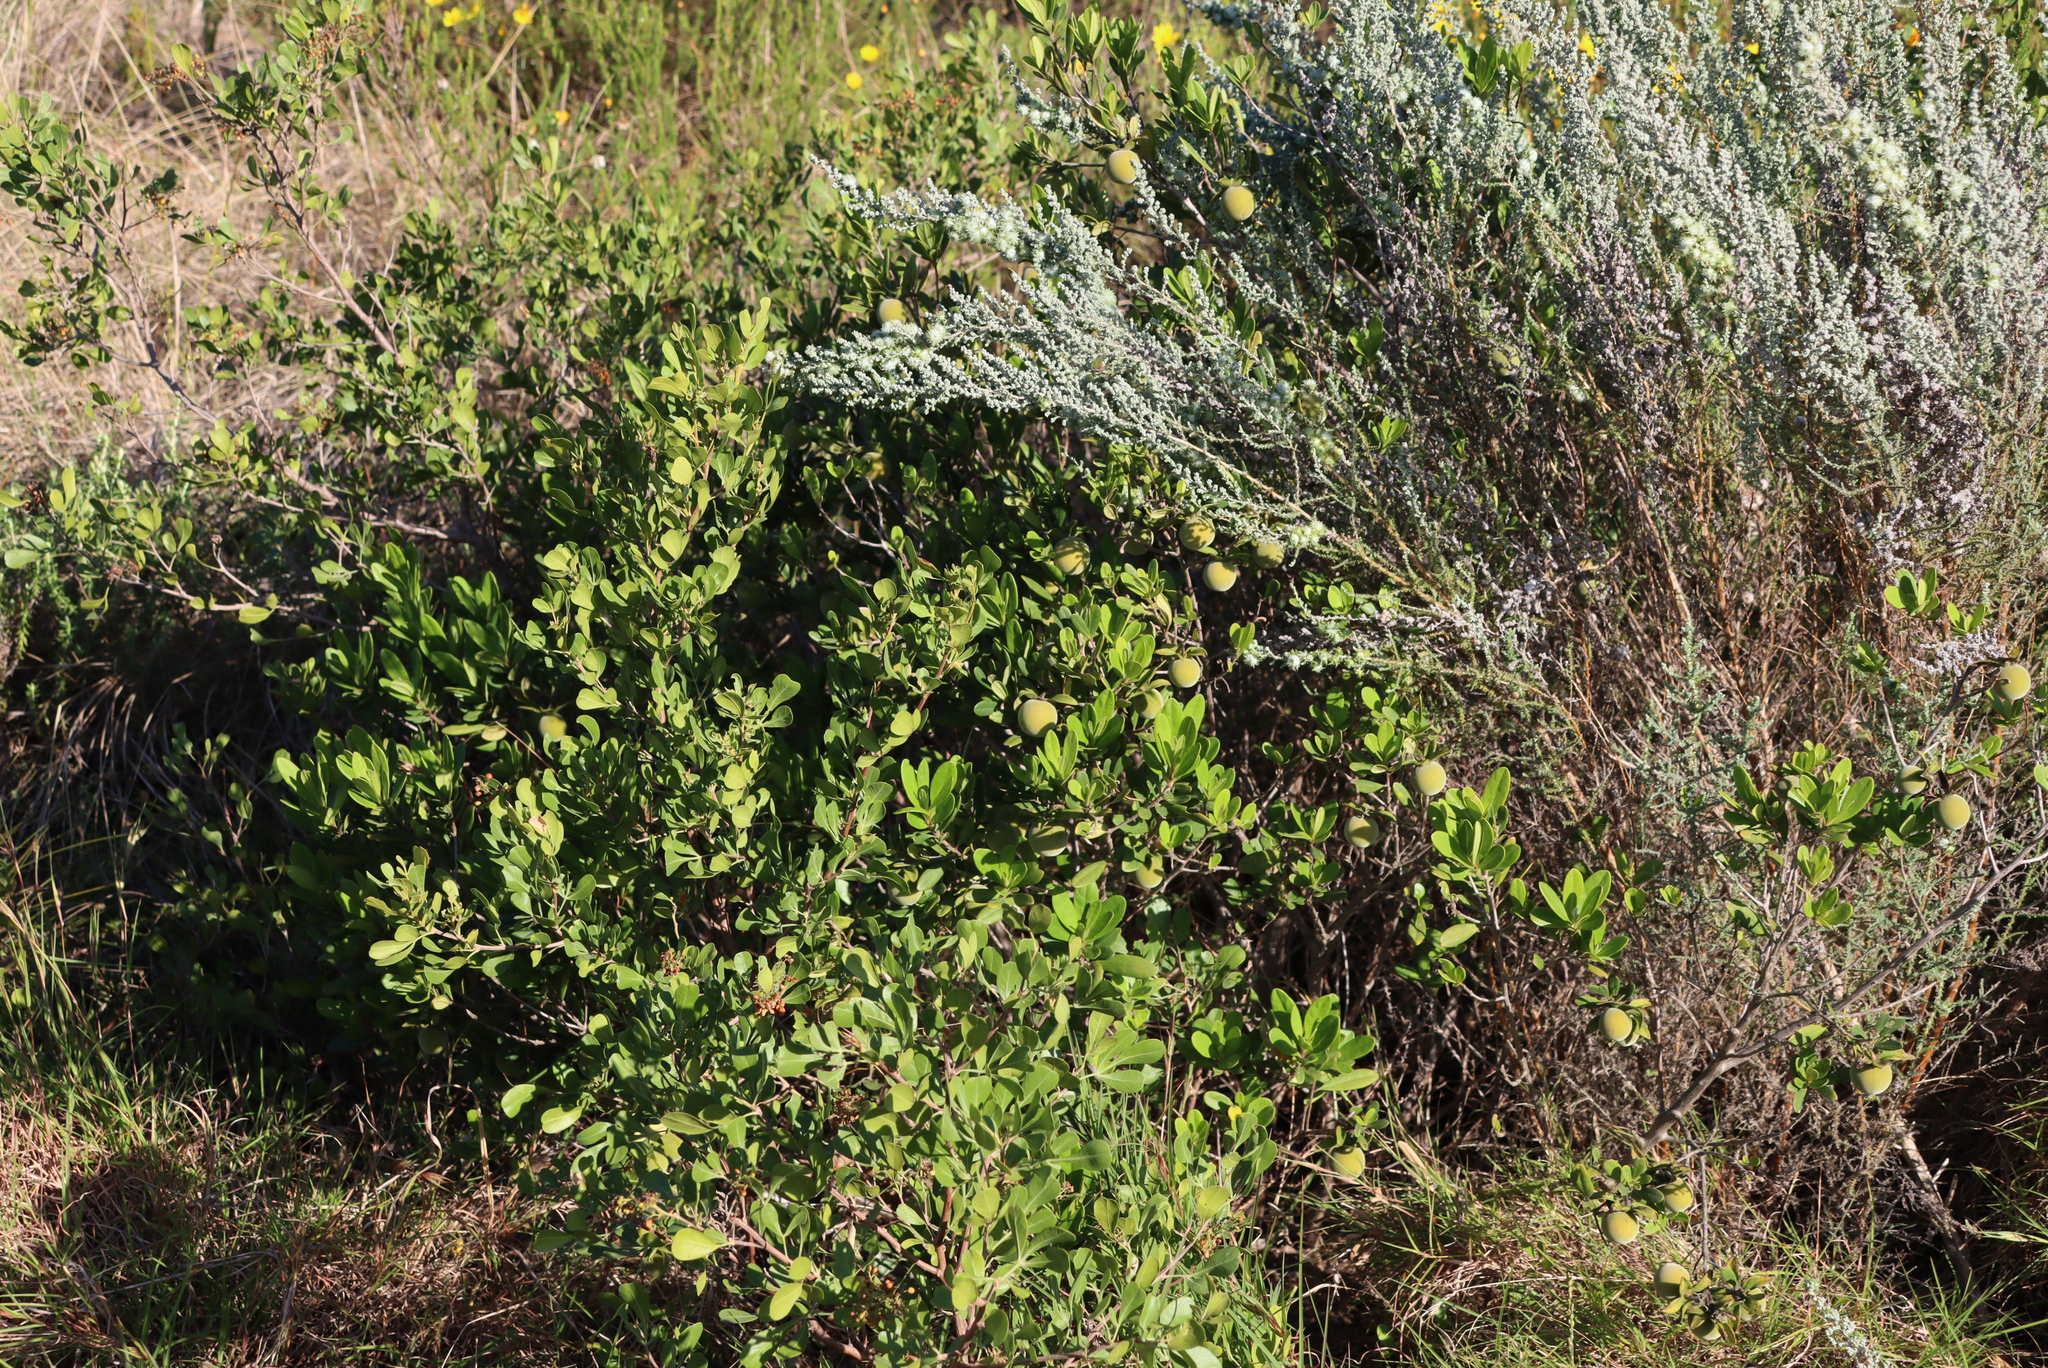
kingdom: Plantae
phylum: Tracheophyta
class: Magnoliopsida
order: Ericales
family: Ebenaceae
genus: Diospyros
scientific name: Diospyros dichrophylla
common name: Common star-apple
